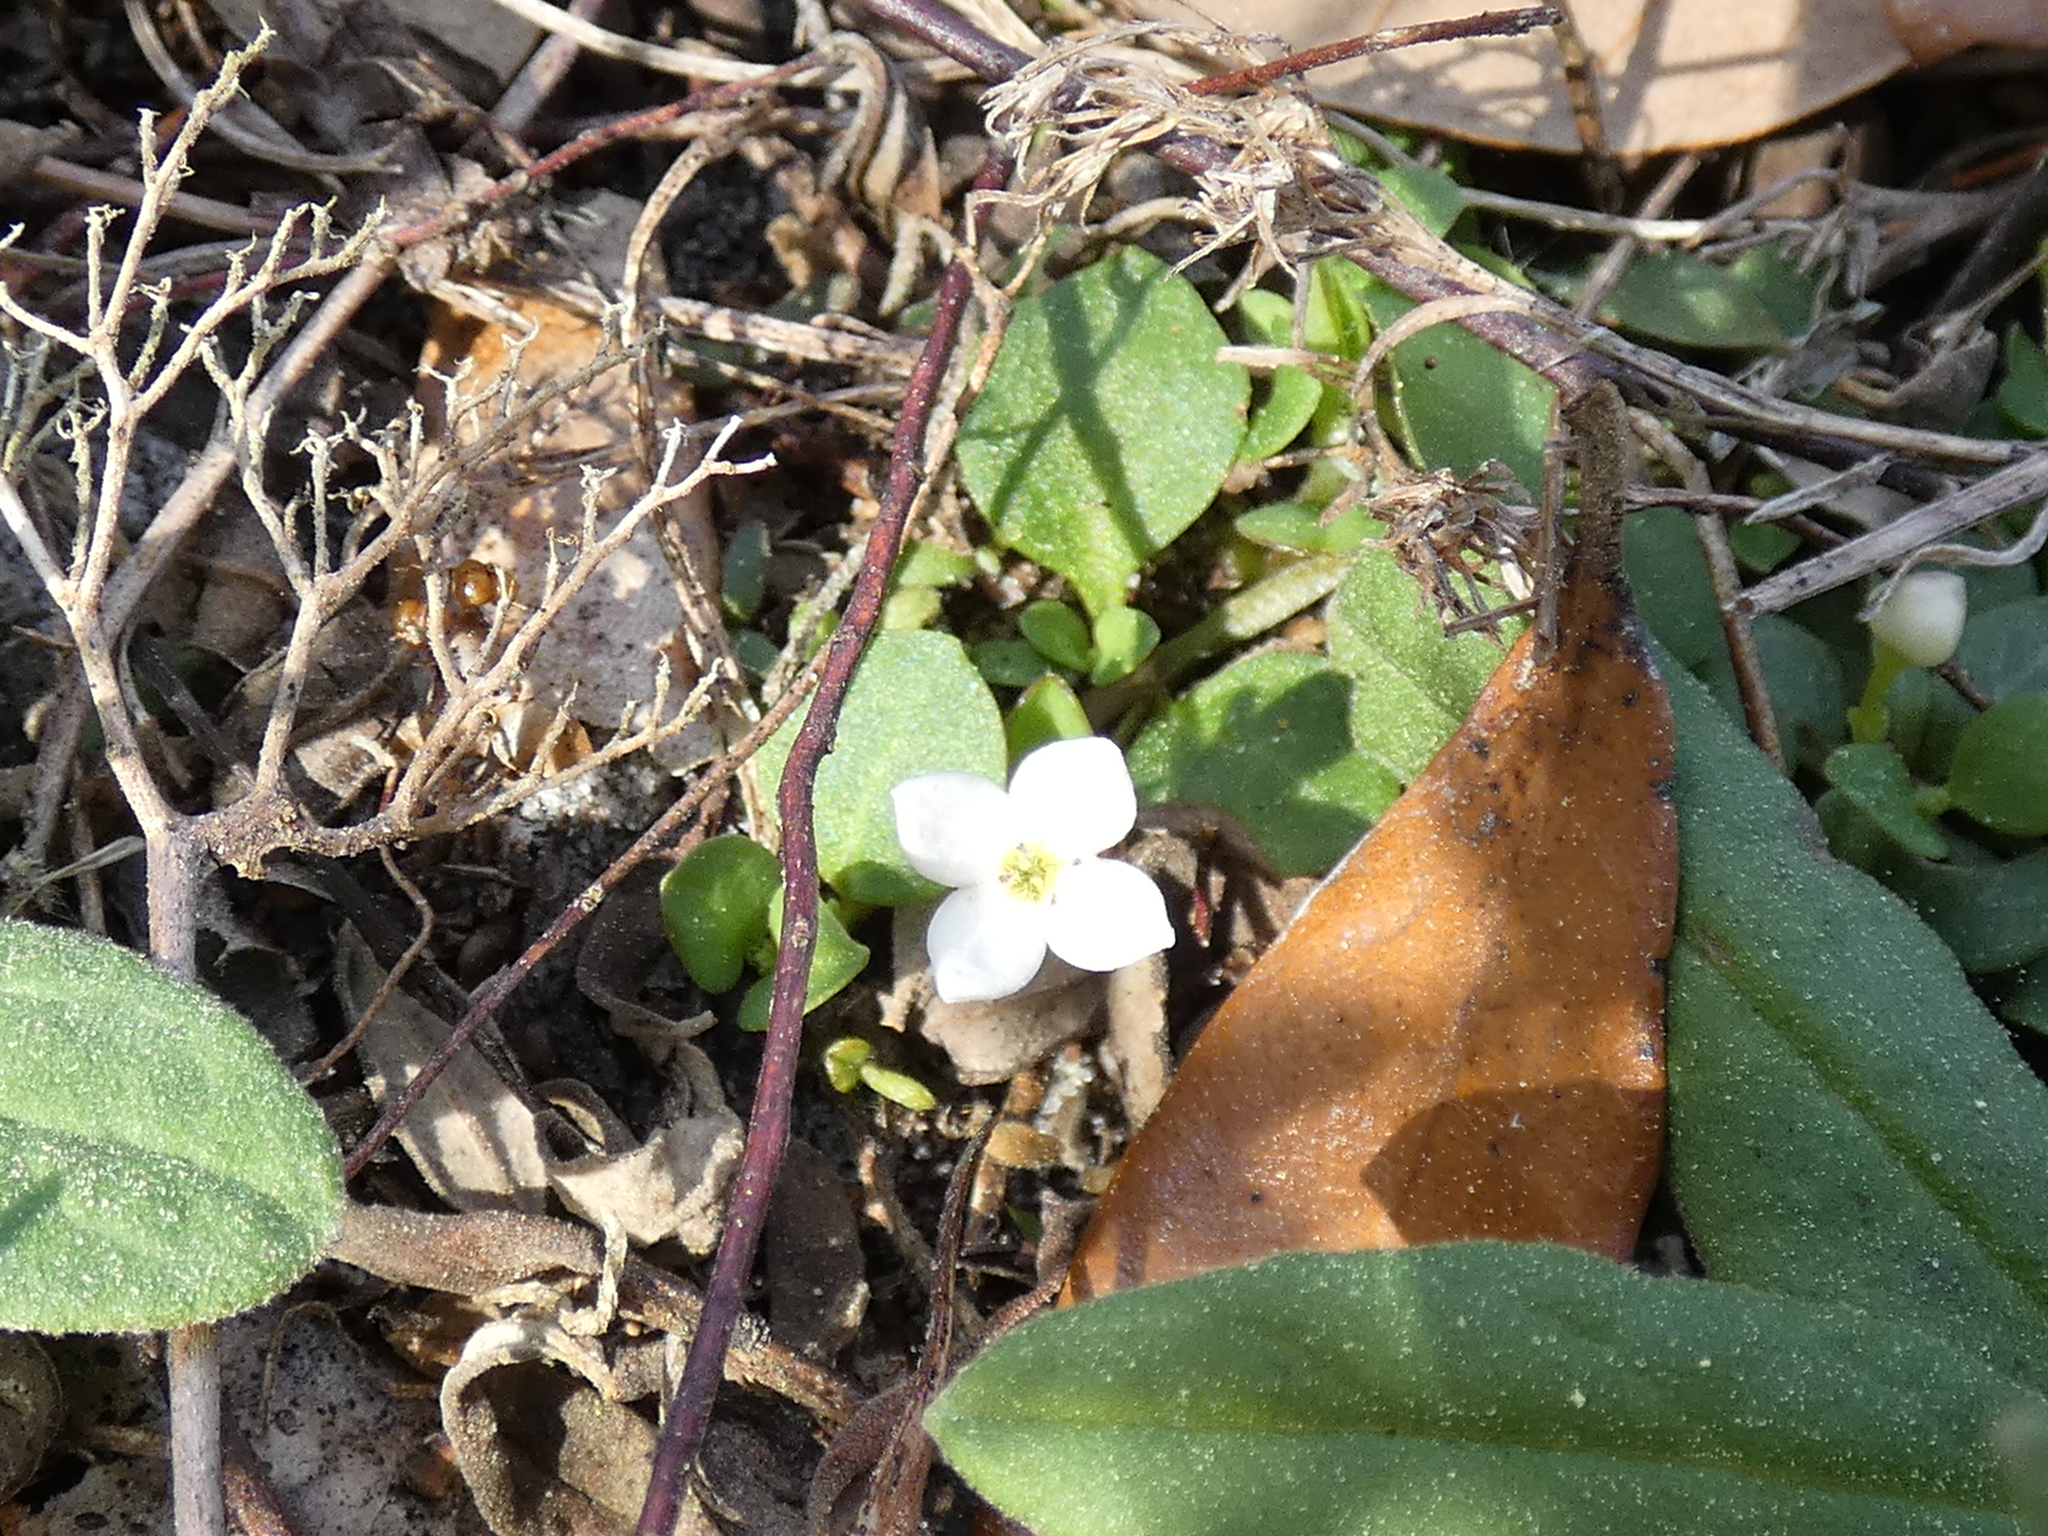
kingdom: Plantae
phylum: Tracheophyta
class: Magnoliopsida
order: Gentianales
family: Rubiaceae
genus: Houstonia
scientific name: Houstonia procumbens
